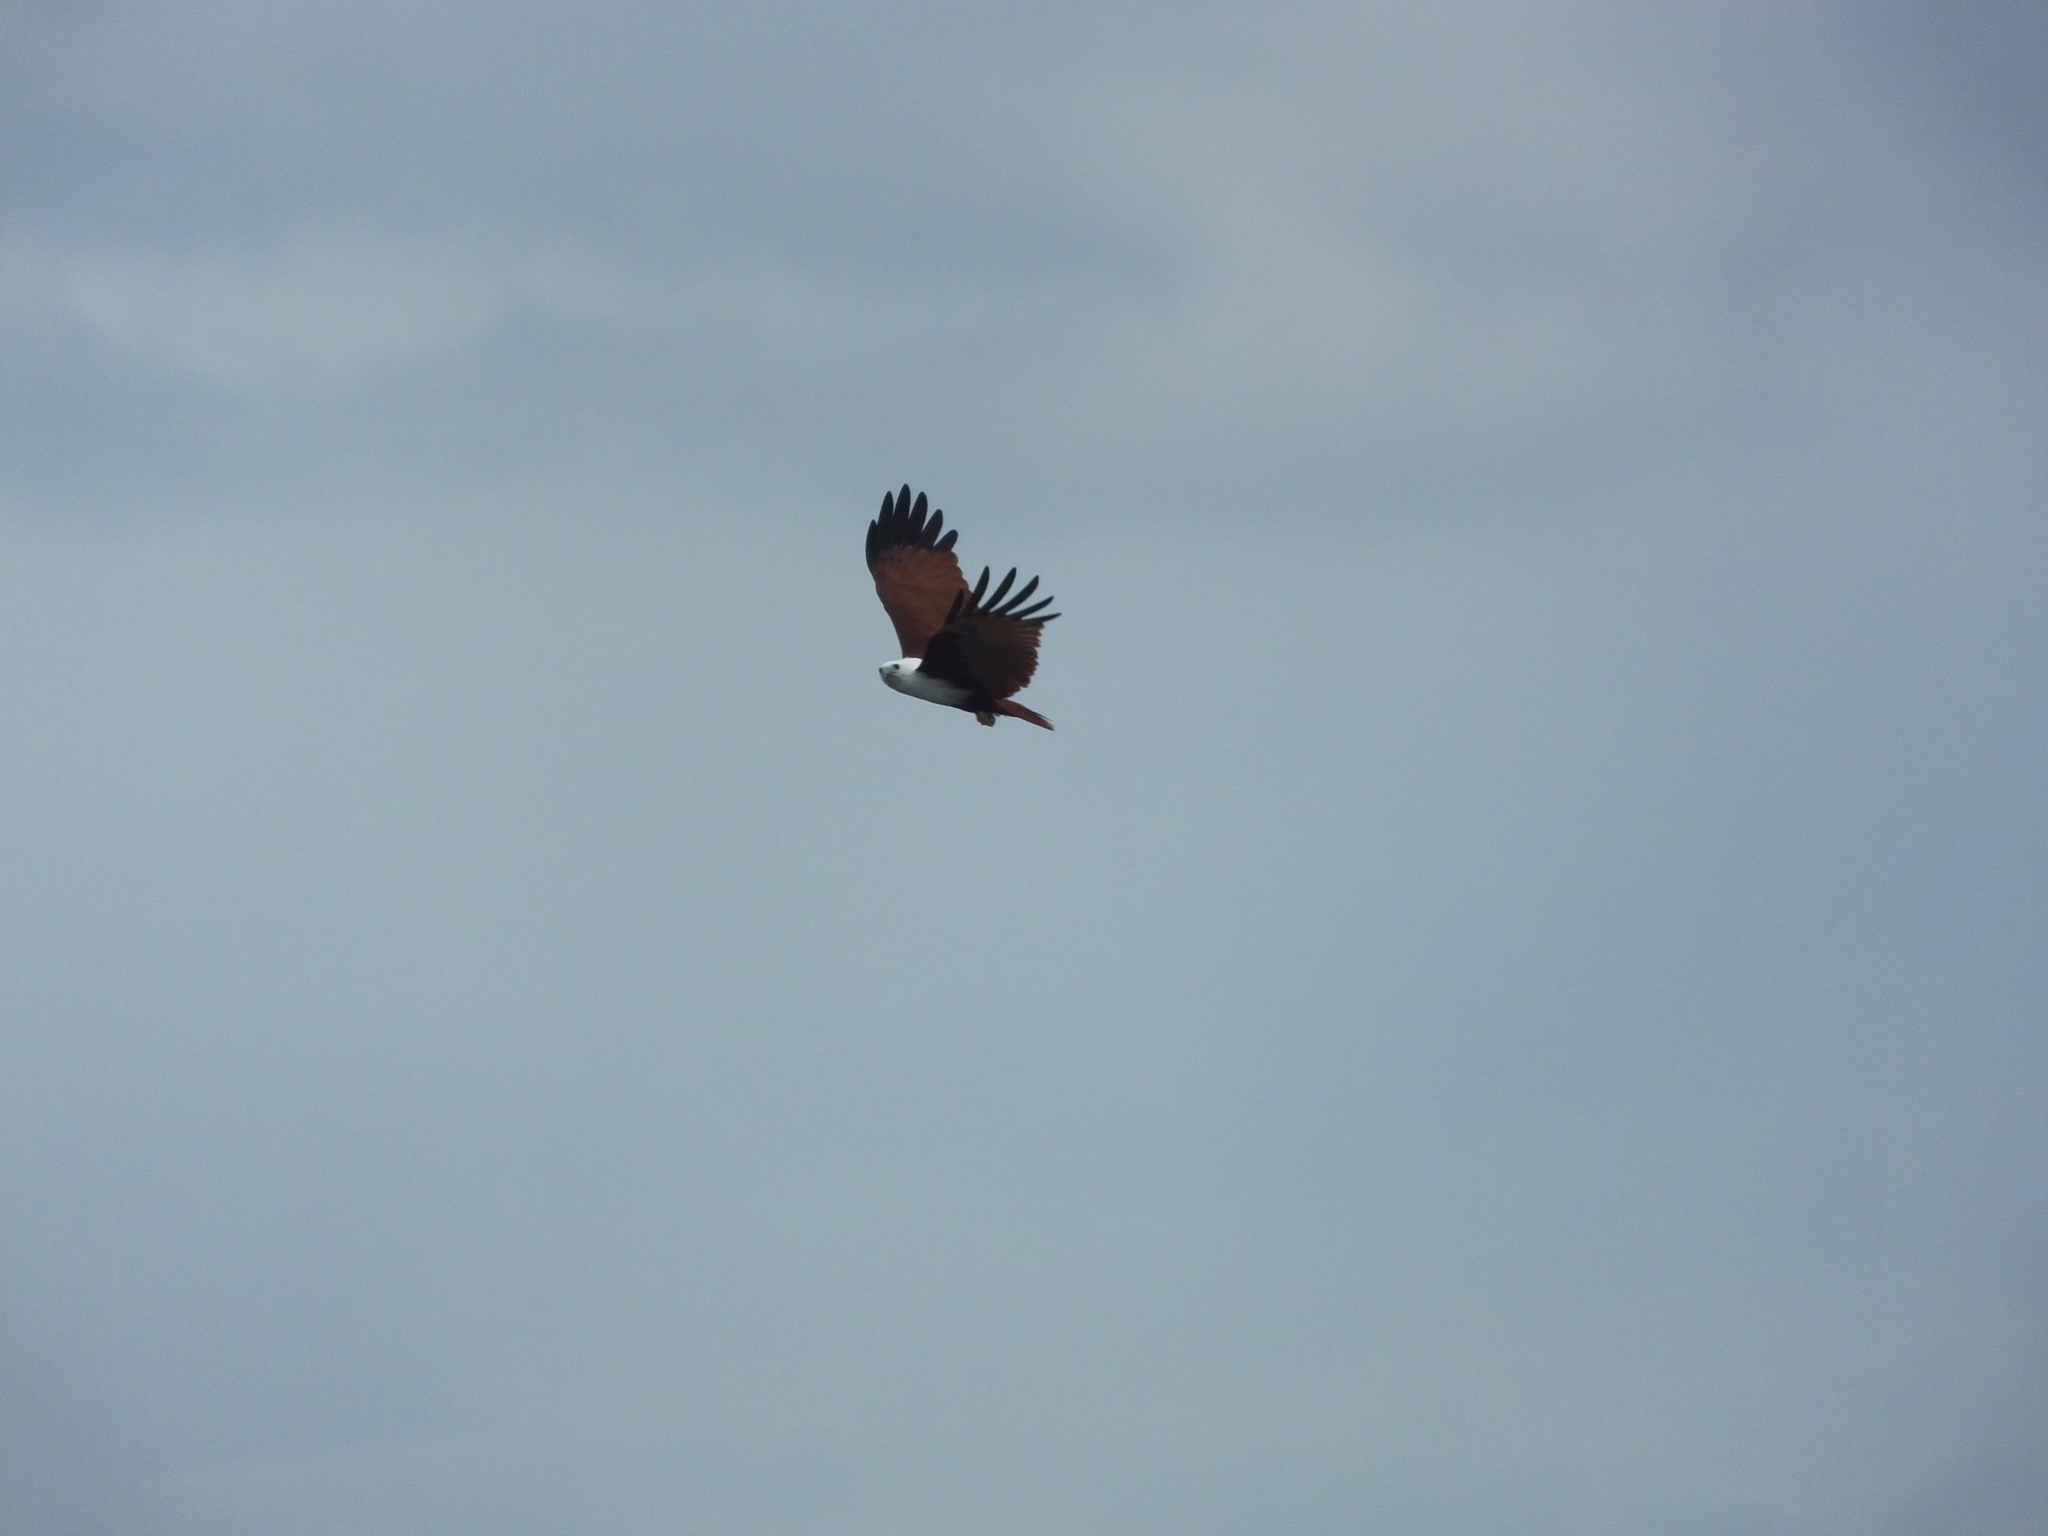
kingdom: Animalia
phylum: Chordata
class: Aves
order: Accipitriformes
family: Accipitridae
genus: Haliastur
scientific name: Haliastur indus
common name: Brahminy kite
